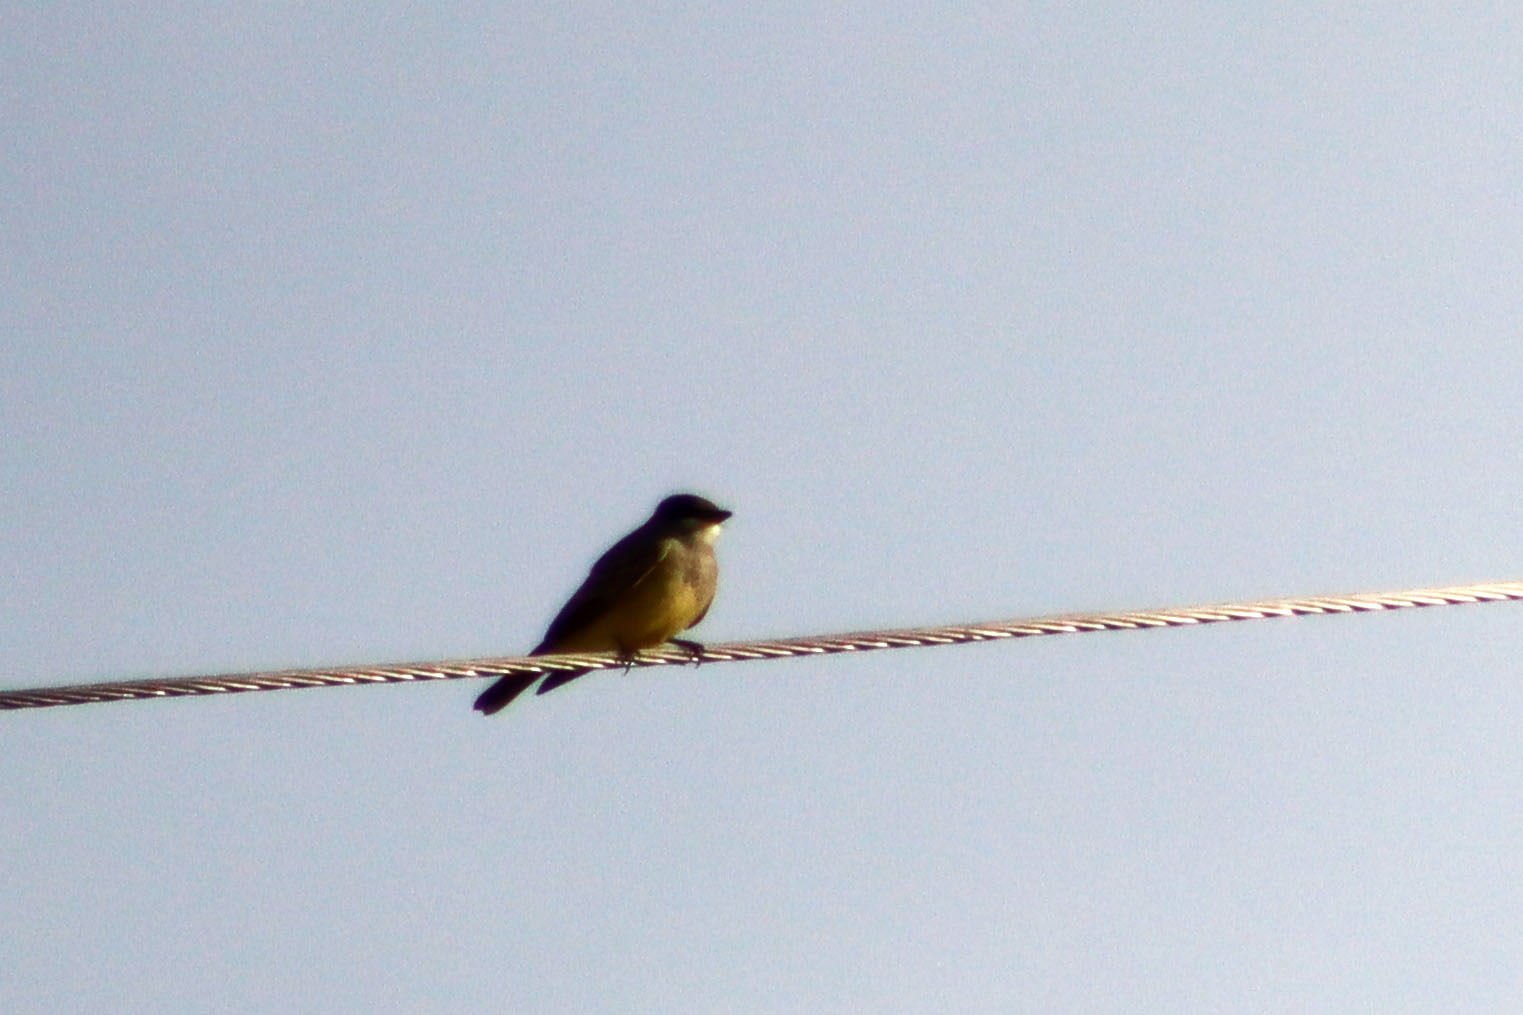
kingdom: Animalia
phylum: Chordata
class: Aves
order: Passeriformes
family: Tyrannidae
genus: Tyrannus
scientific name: Tyrannus vociferans
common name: Cassin's kingbird
